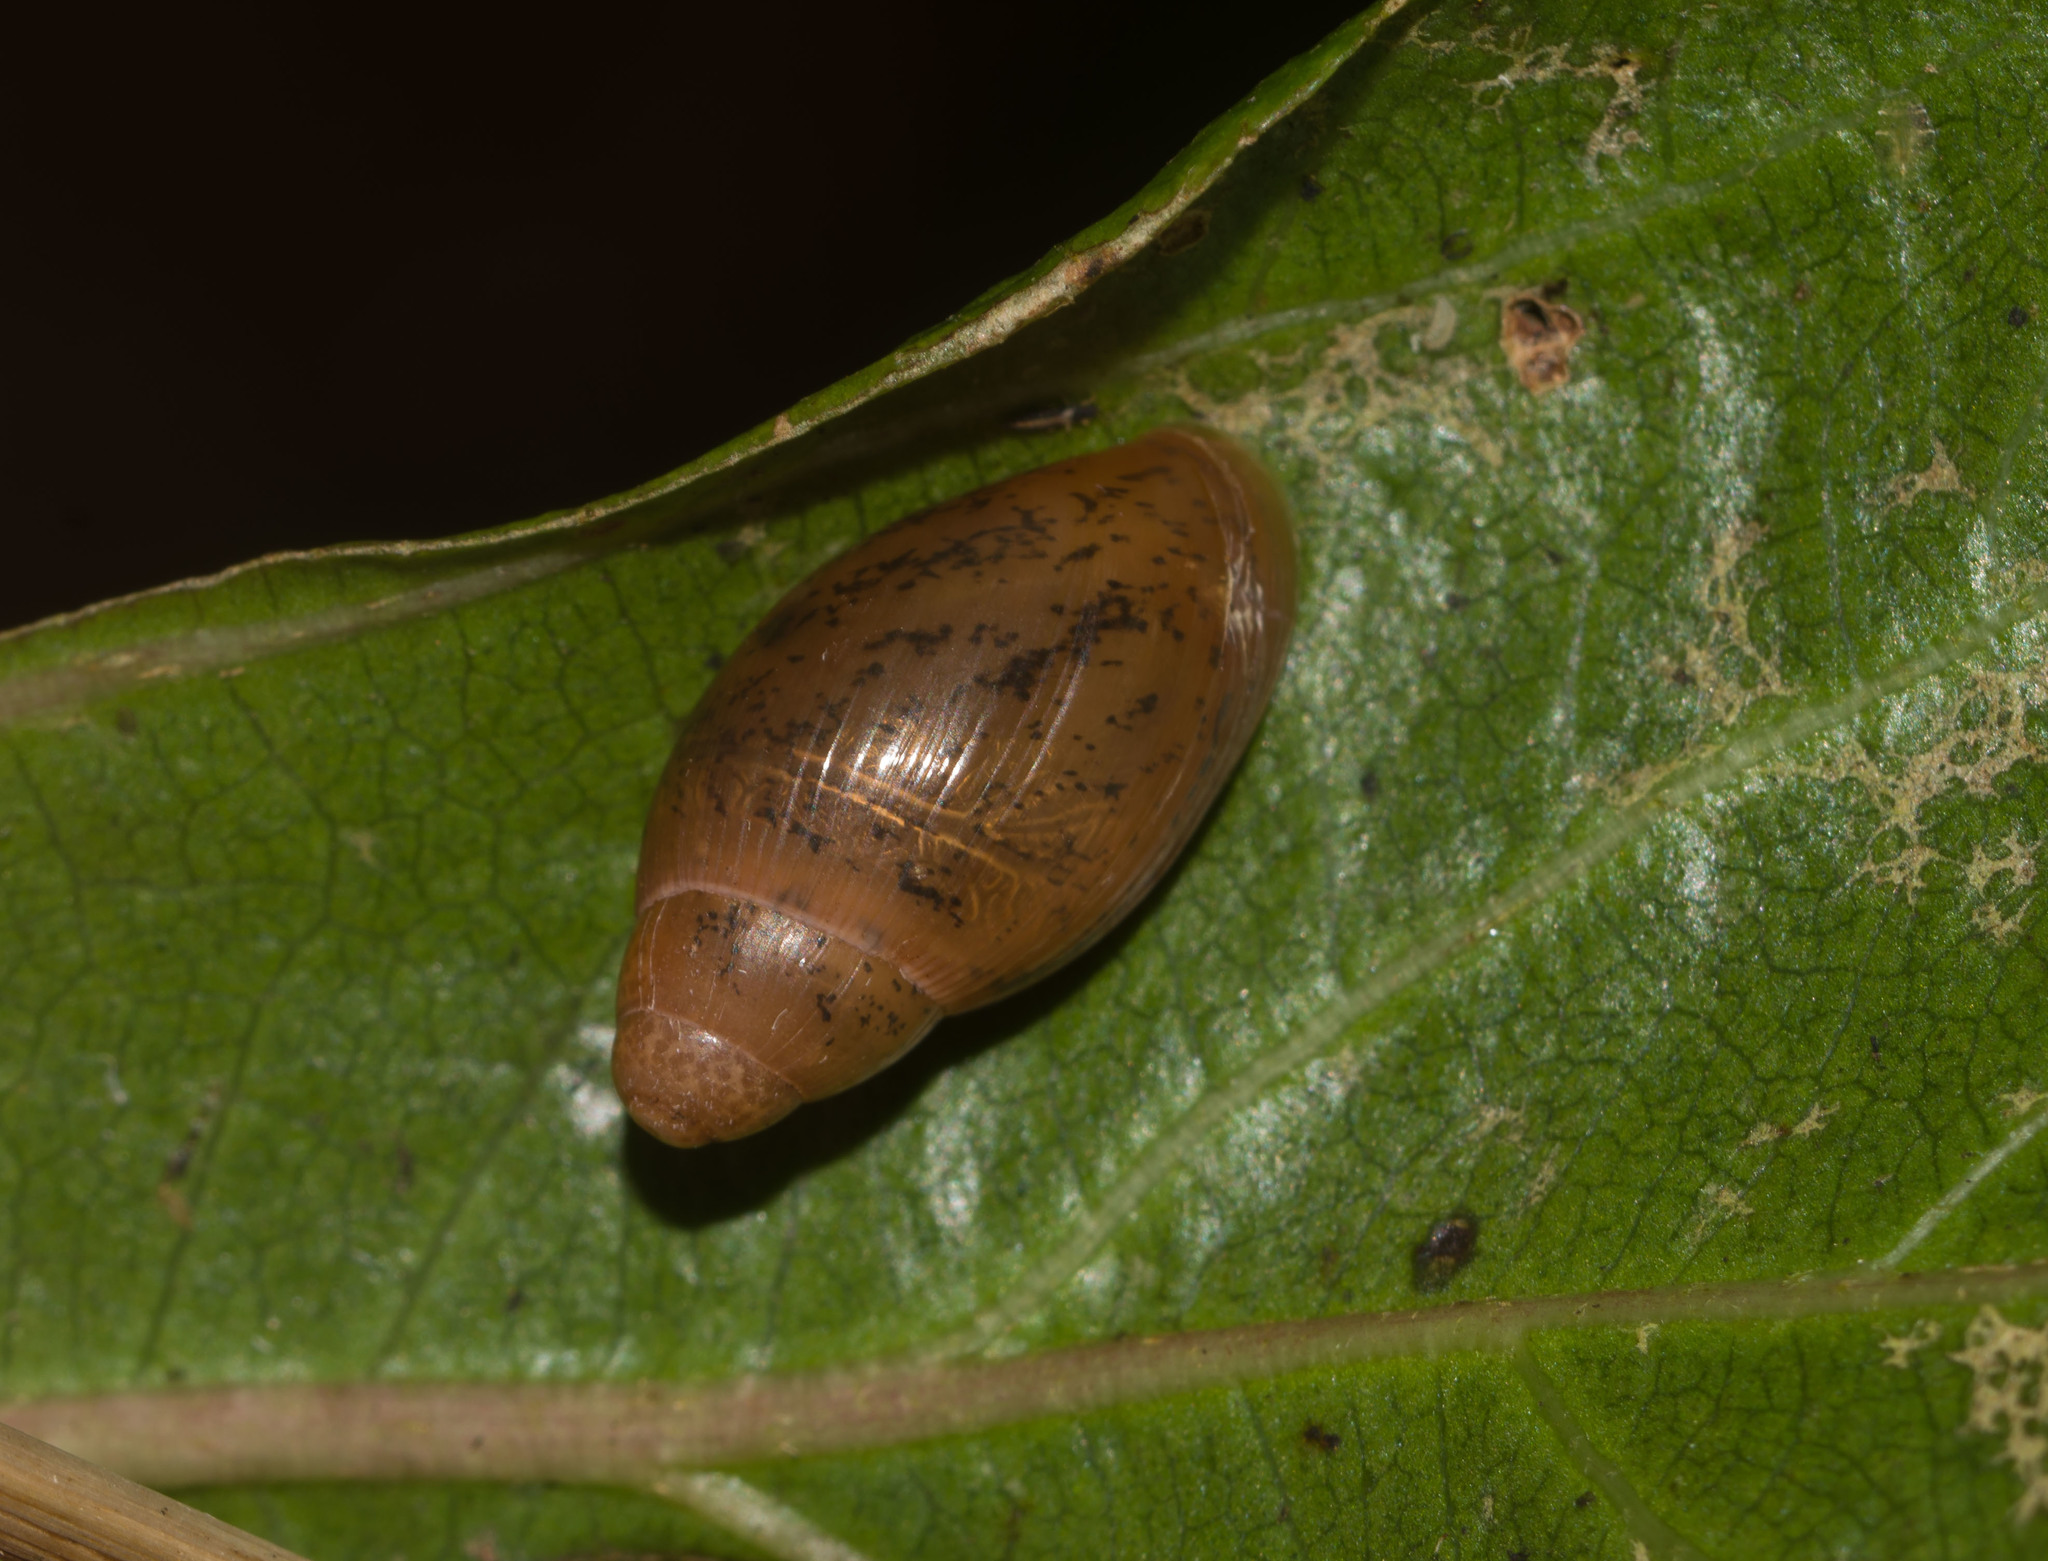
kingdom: Animalia
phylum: Mollusca
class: Gastropoda
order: Stylommatophora
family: Spiraxidae
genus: Euglandina
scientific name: Euglandina rosea
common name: Rosy wolfsnail
